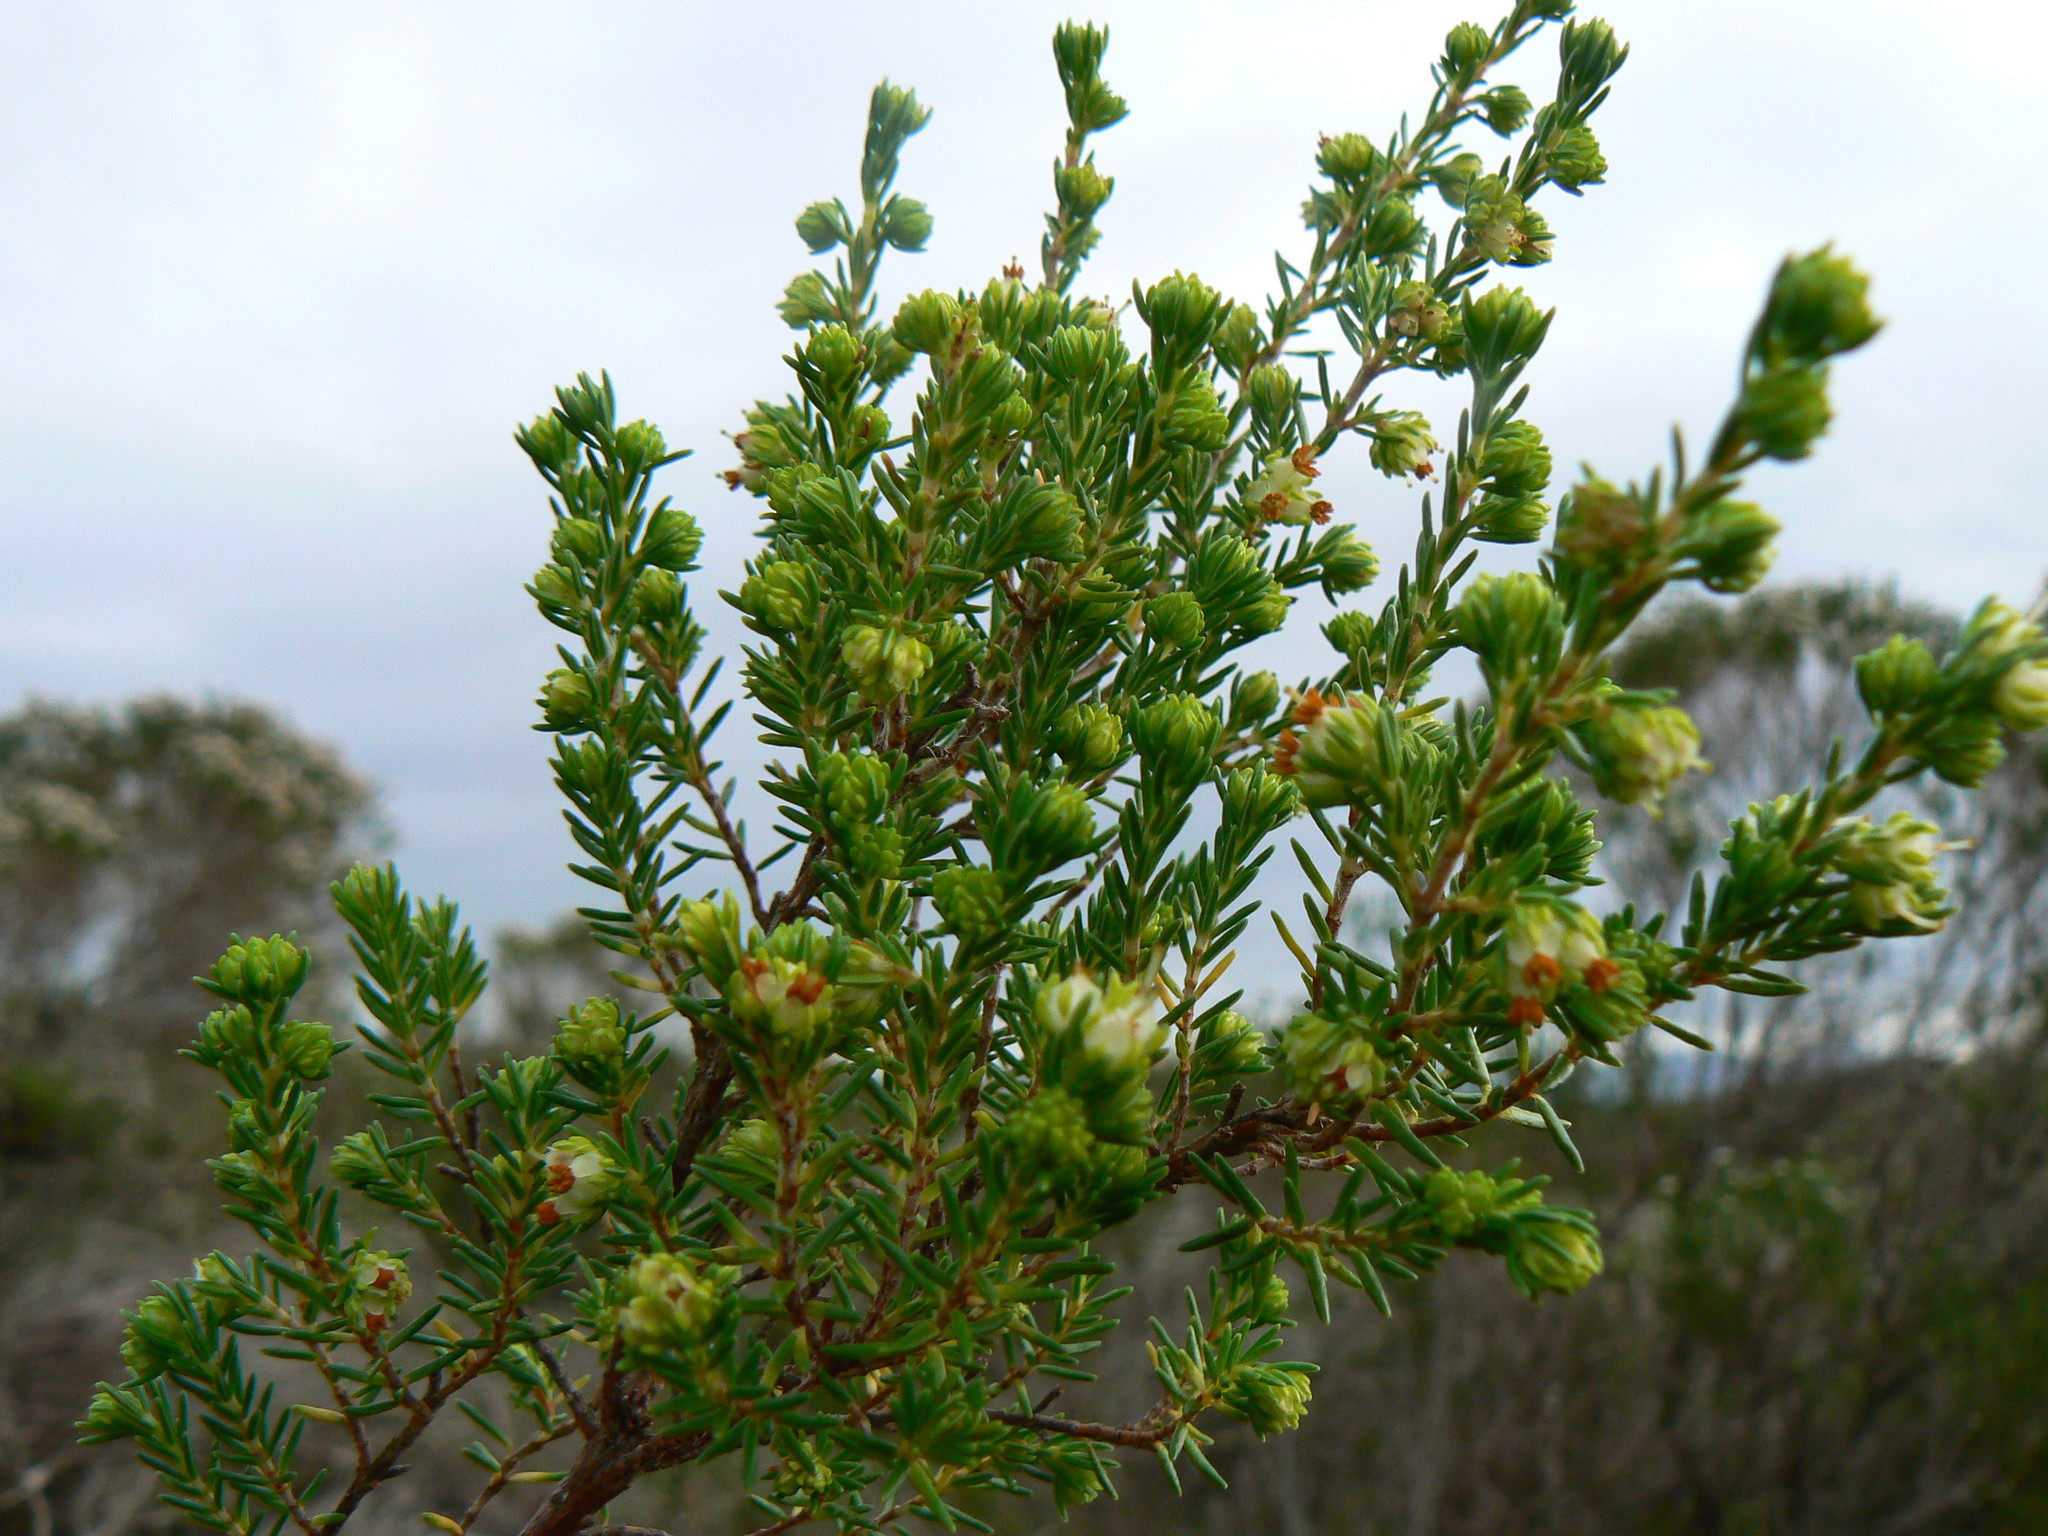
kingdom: Plantae
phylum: Tracheophyta
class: Magnoliopsida
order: Ericales
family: Ericaceae
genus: Erica
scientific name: Erica glumiflora
